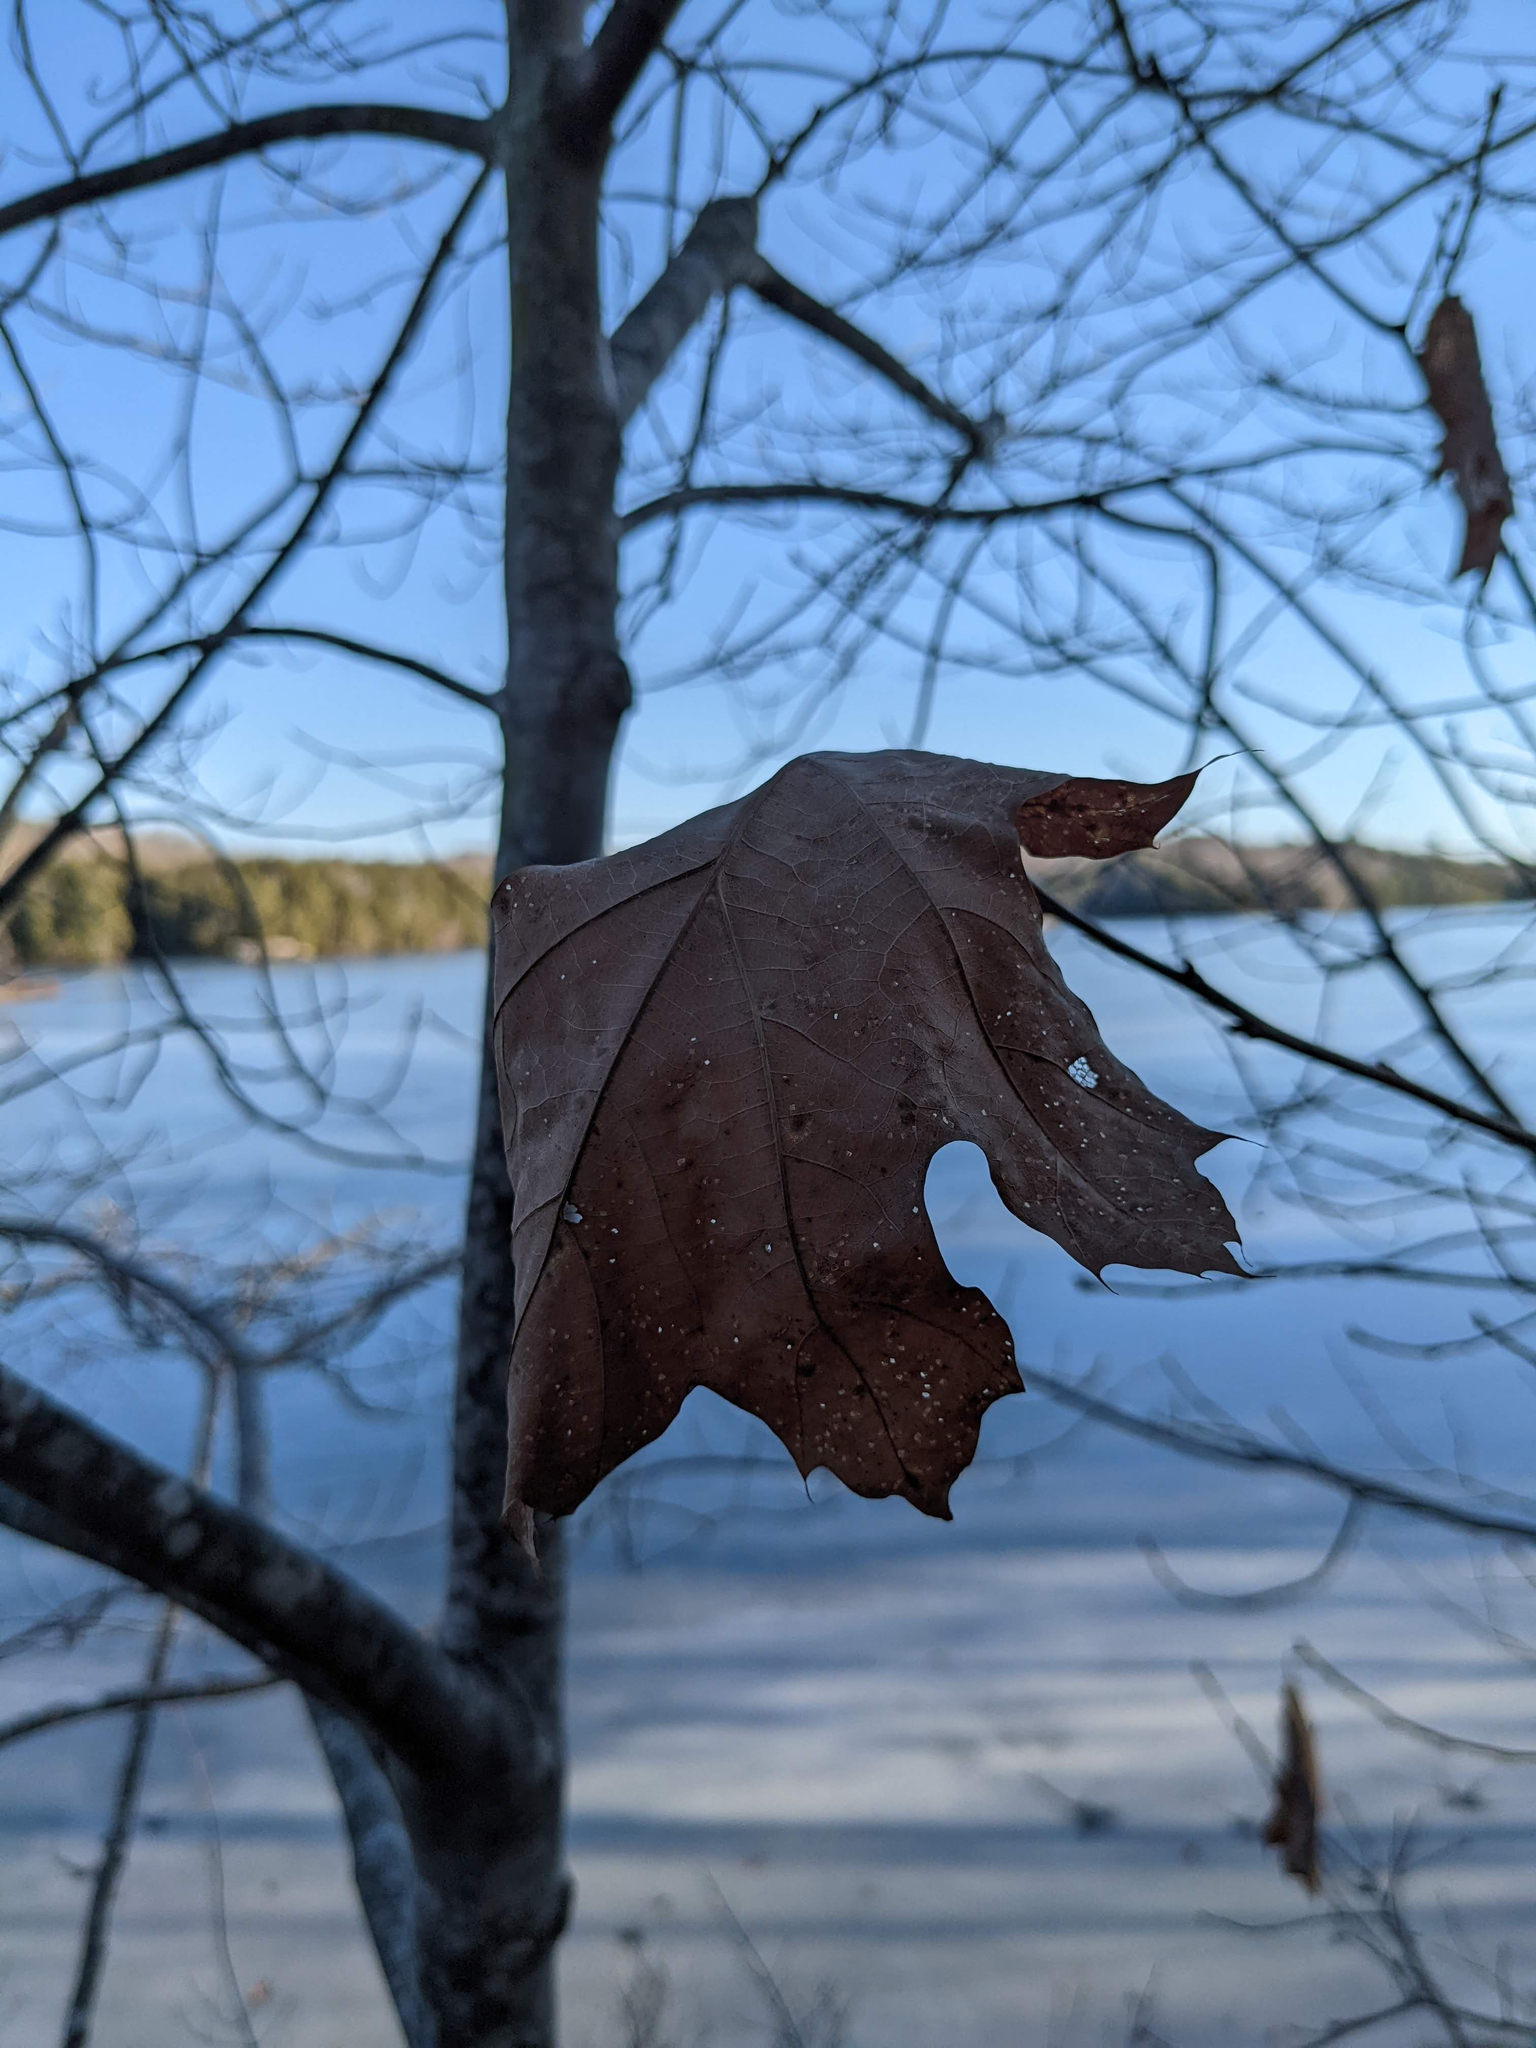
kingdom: Plantae
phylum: Tracheophyta
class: Magnoliopsida
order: Fagales
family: Fagaceae
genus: Quercus
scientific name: Quercus rubra
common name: Red oak
